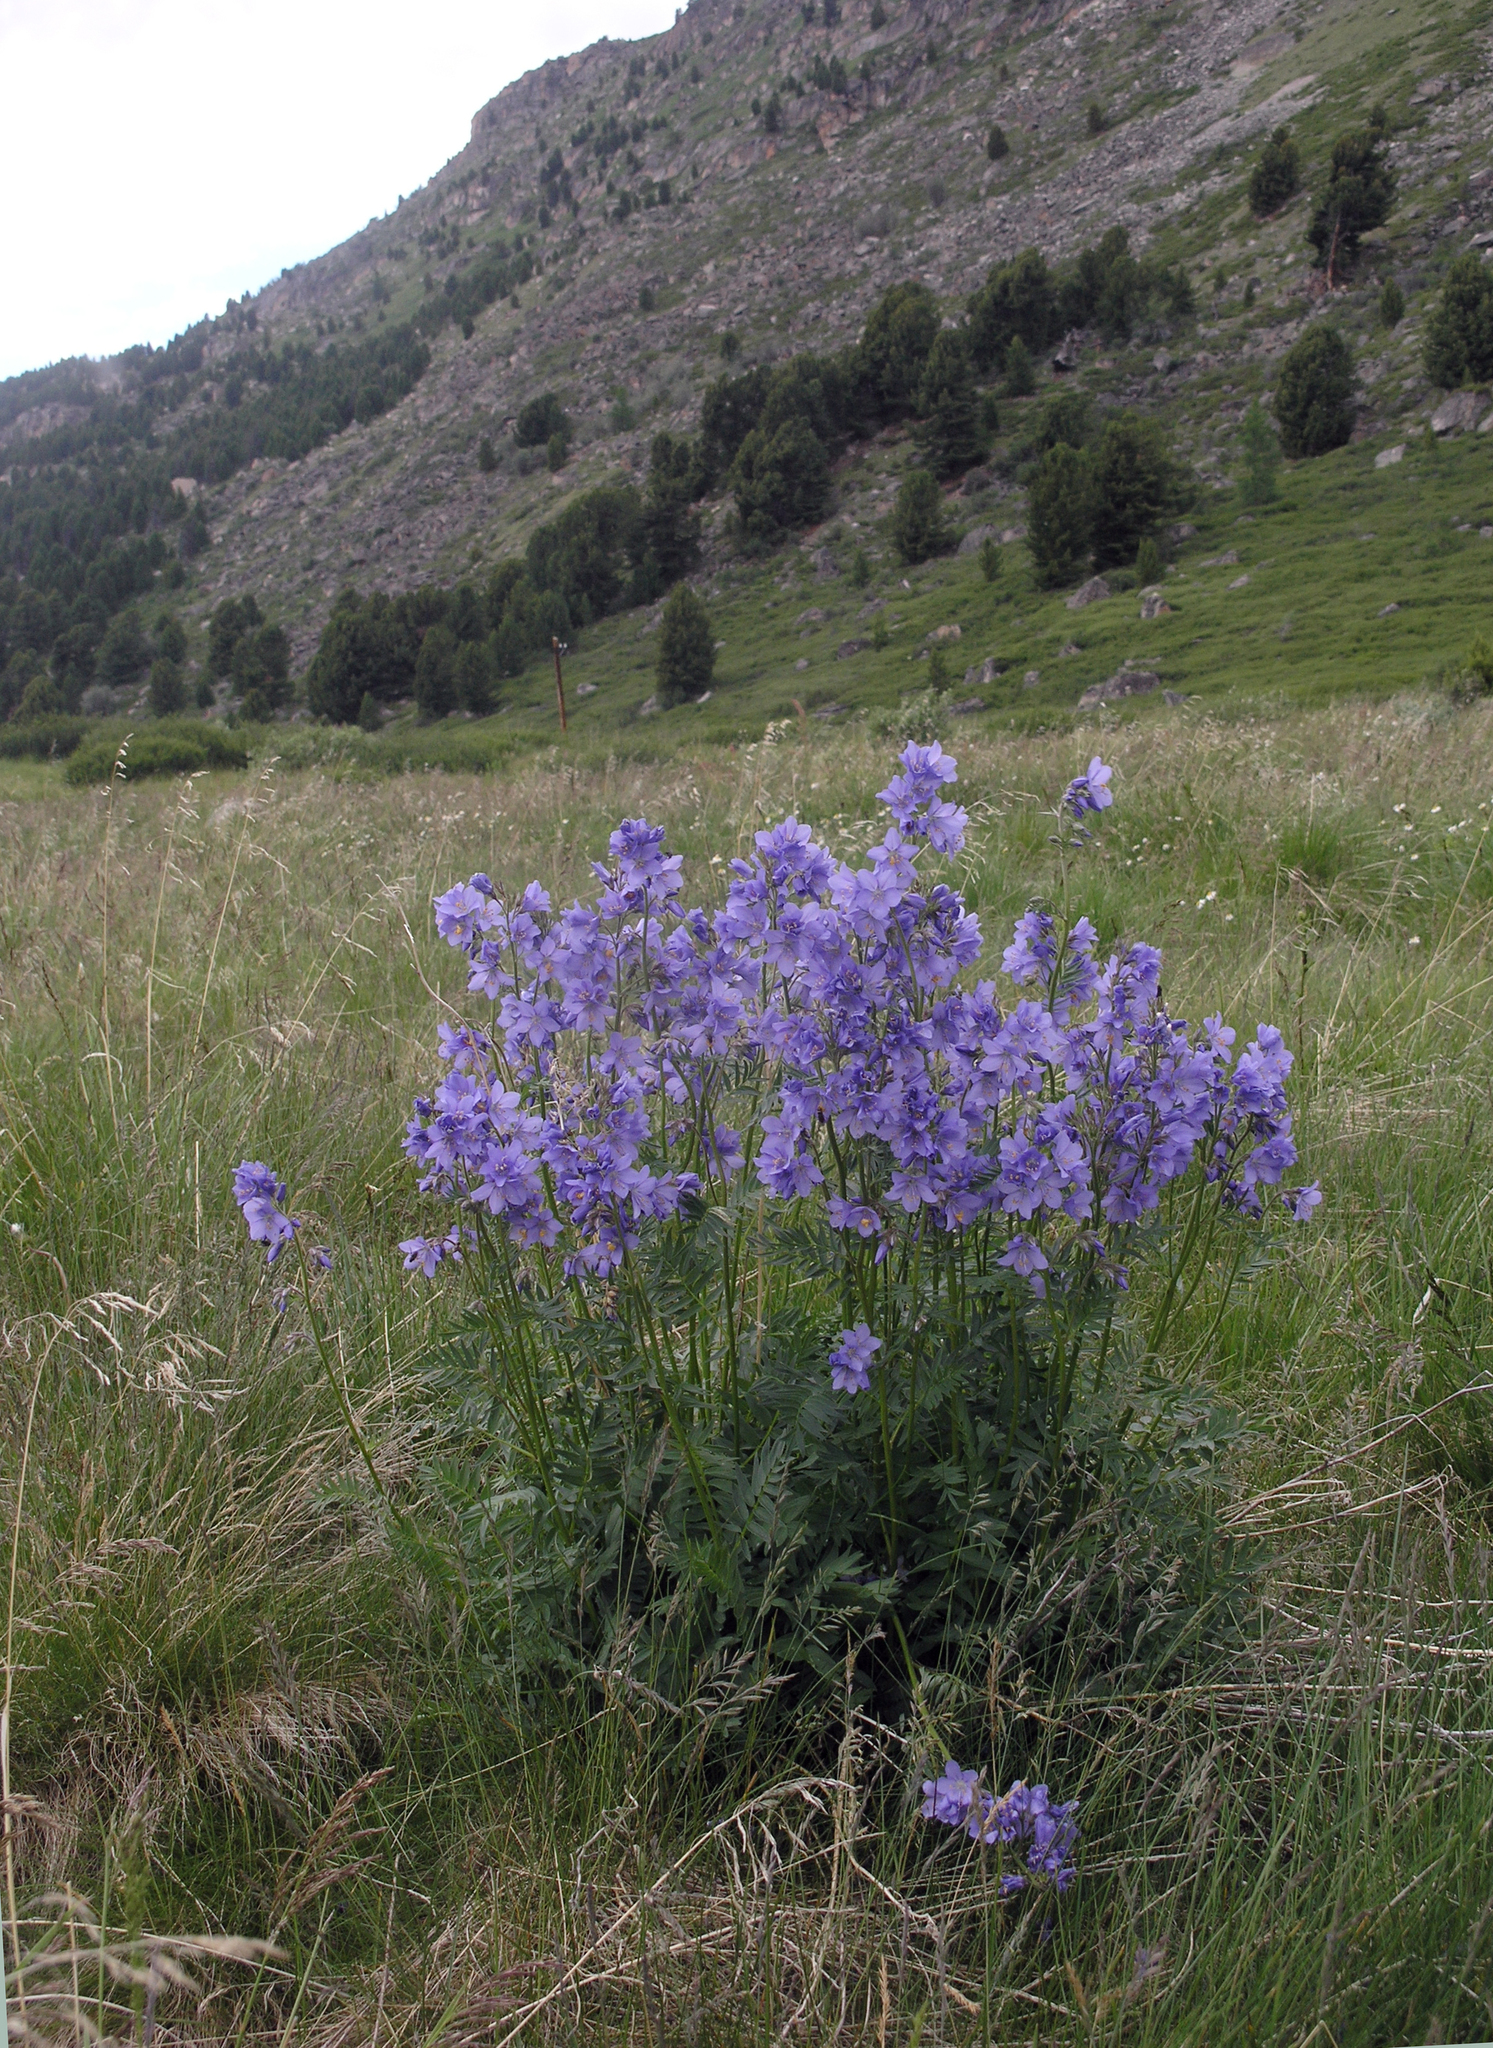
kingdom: Plantae
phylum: Tracheophyta
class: Magnoliopsida
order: Ericales
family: Polemoniaceae
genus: Polemonium
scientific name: Polemonium caeruleum
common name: Jacob's-ladder
